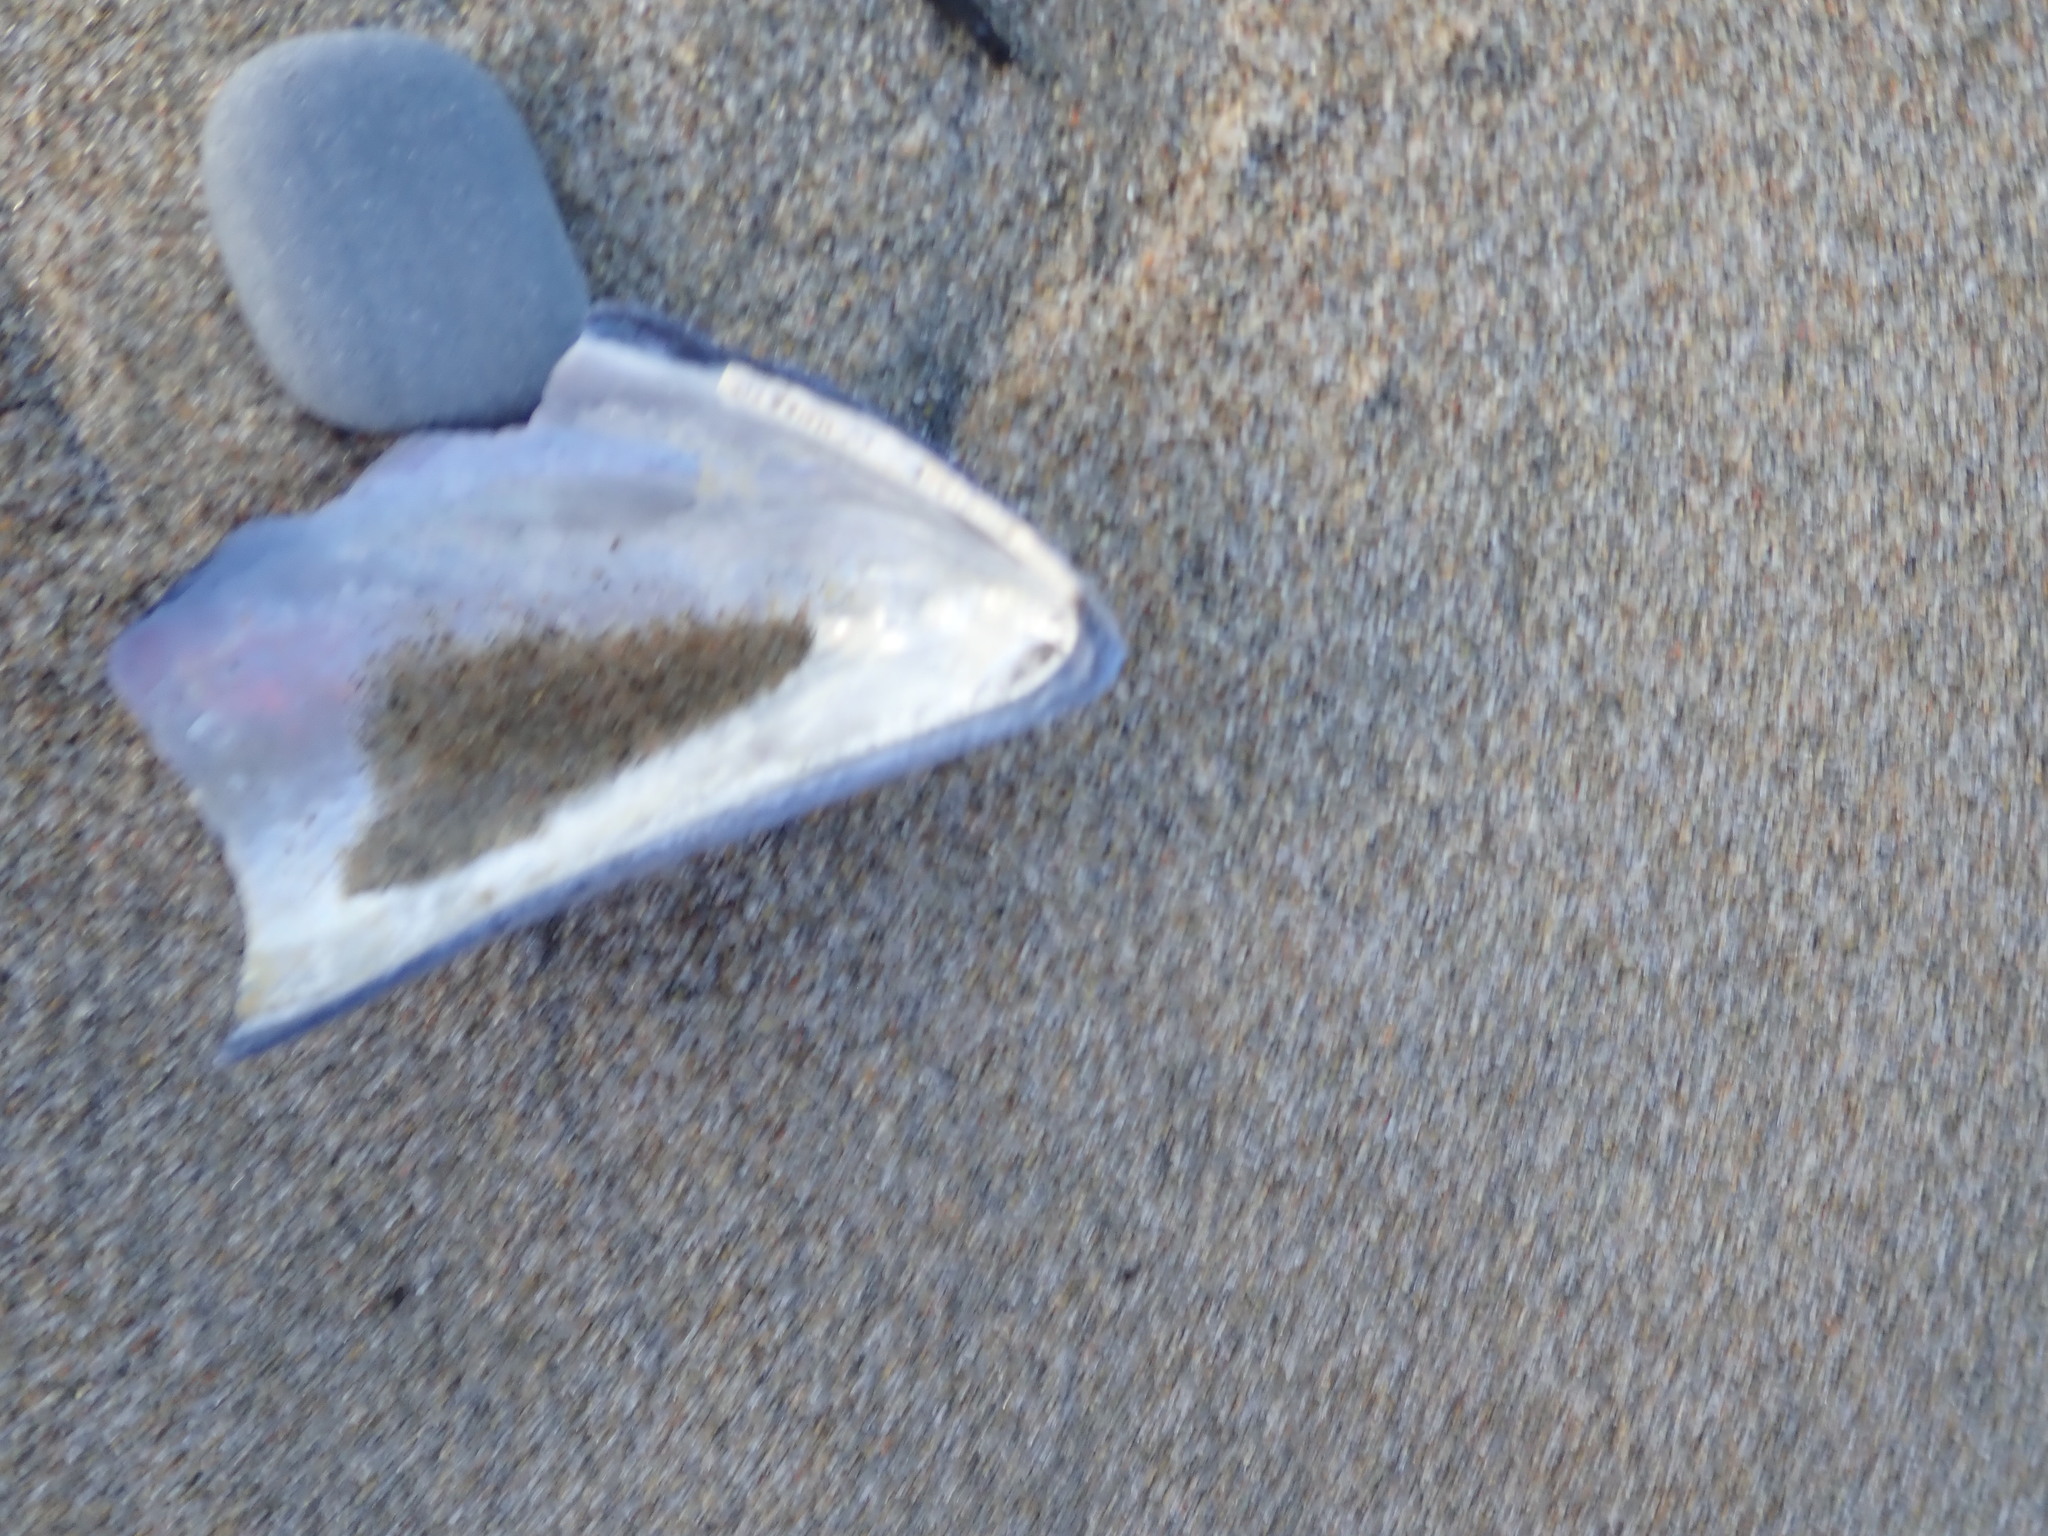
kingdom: Animalia
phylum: Mollusca
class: Bivalvia
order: Mytilida
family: Mytilidae
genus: Mytilus
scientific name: Mytilus edulis
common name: Blue mussel
